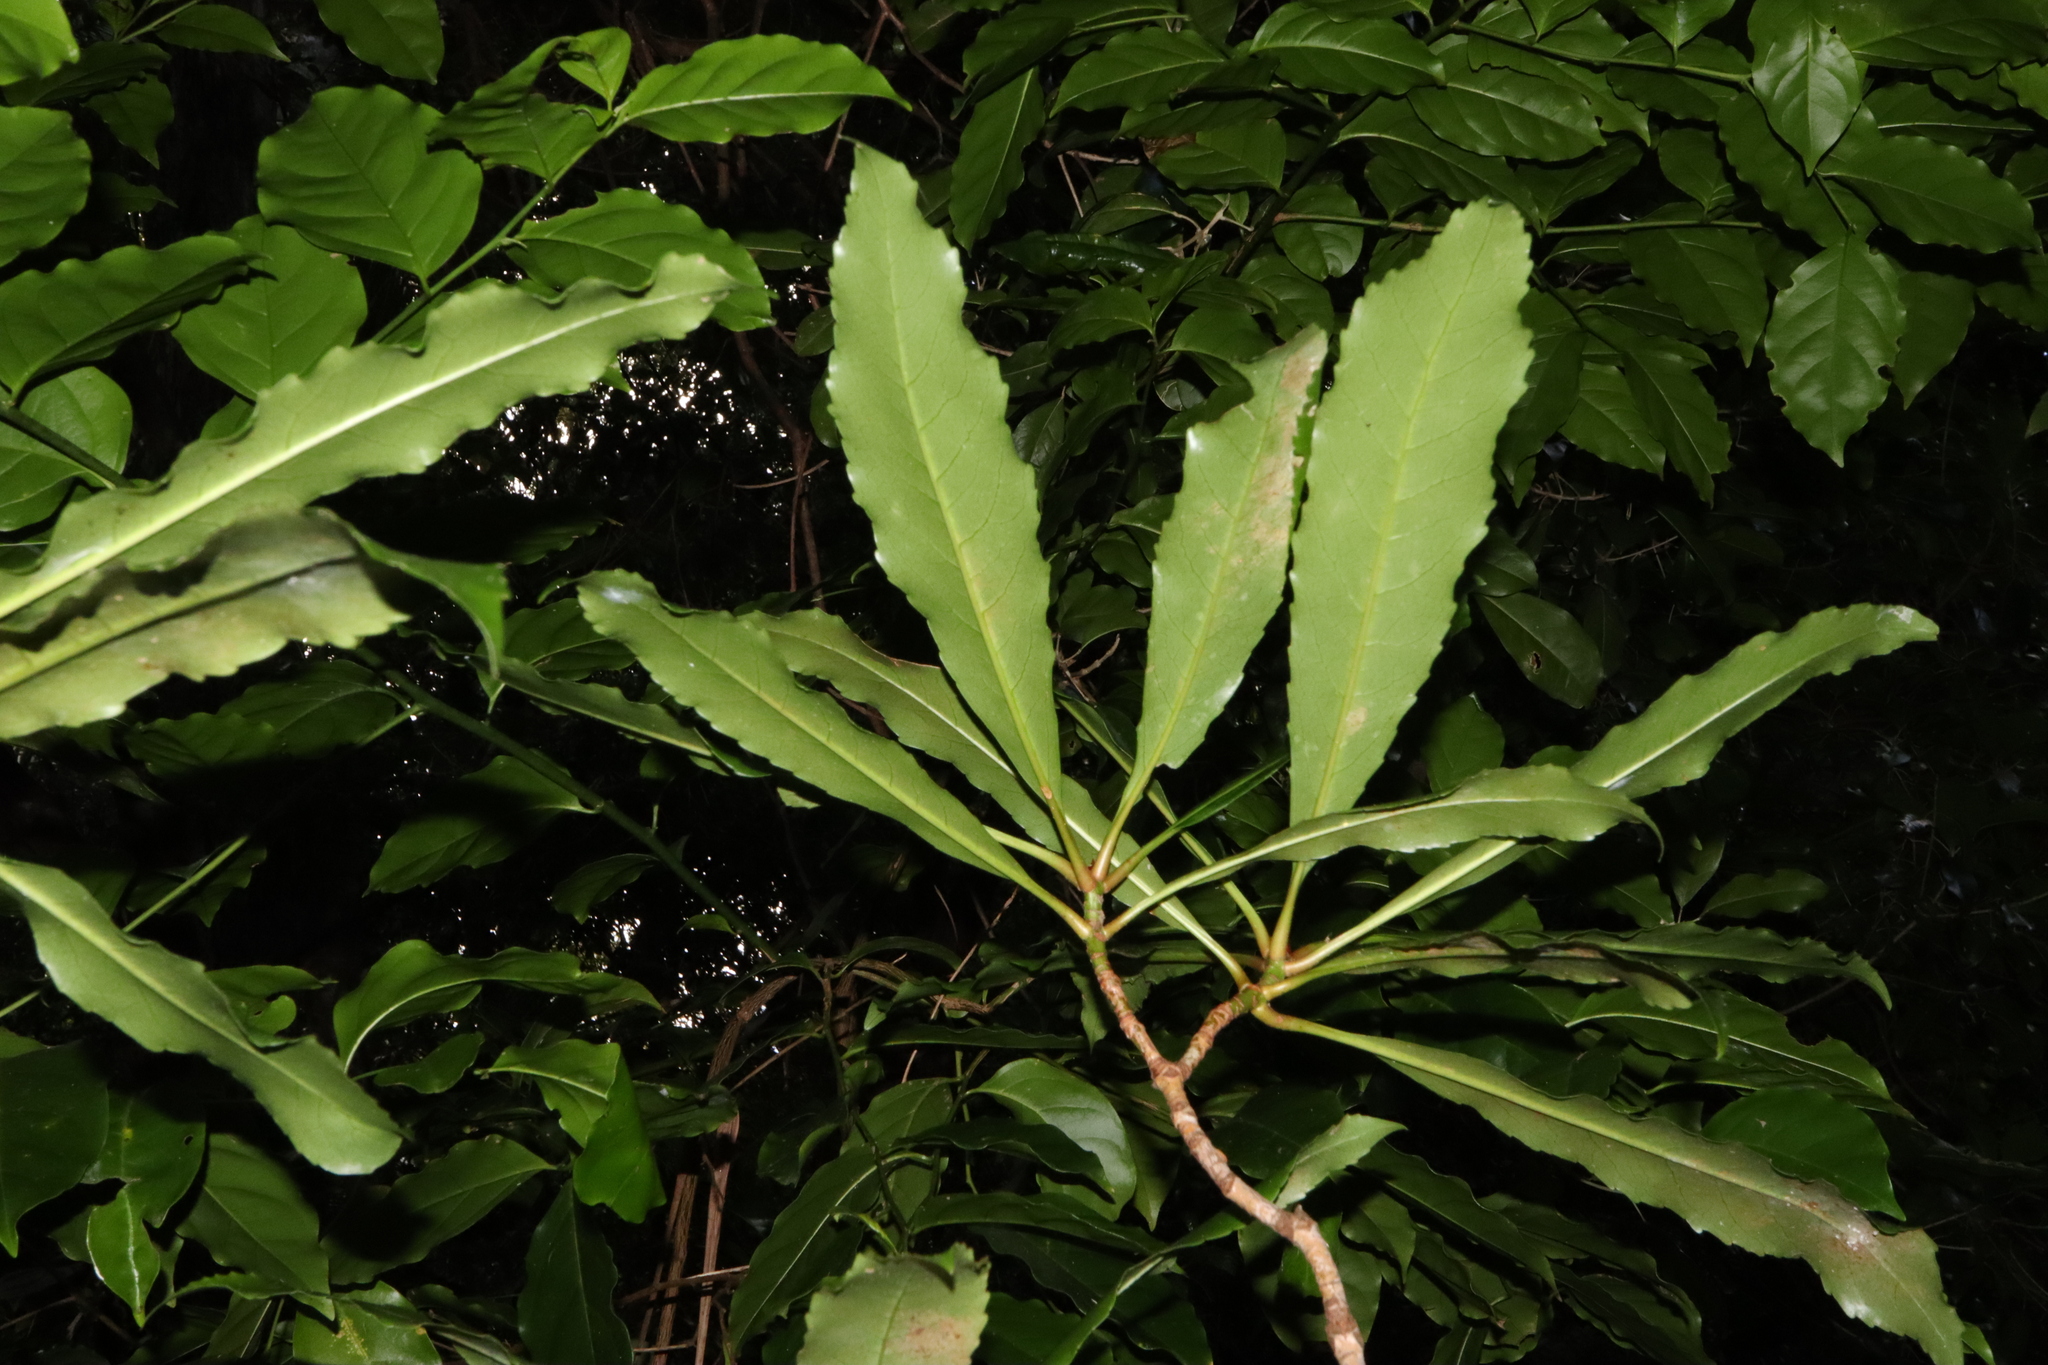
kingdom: Plantae
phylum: Tracheophyta
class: Magnoliopsida
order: Escalloniales
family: Escalloniaceae
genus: Anopterus
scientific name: Anopterus macleayanus
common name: Tasmanian-laurel
